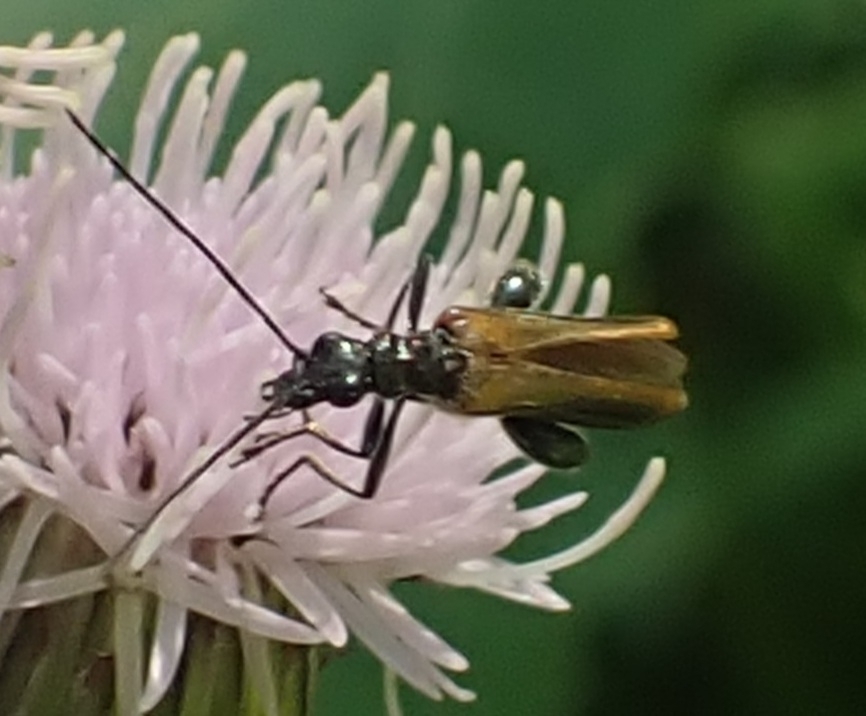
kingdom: Animalia
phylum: Arthropoda
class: Insecta
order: Coleoptera
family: Oedemeridae
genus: Oedemera
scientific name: Oedemera femorata
